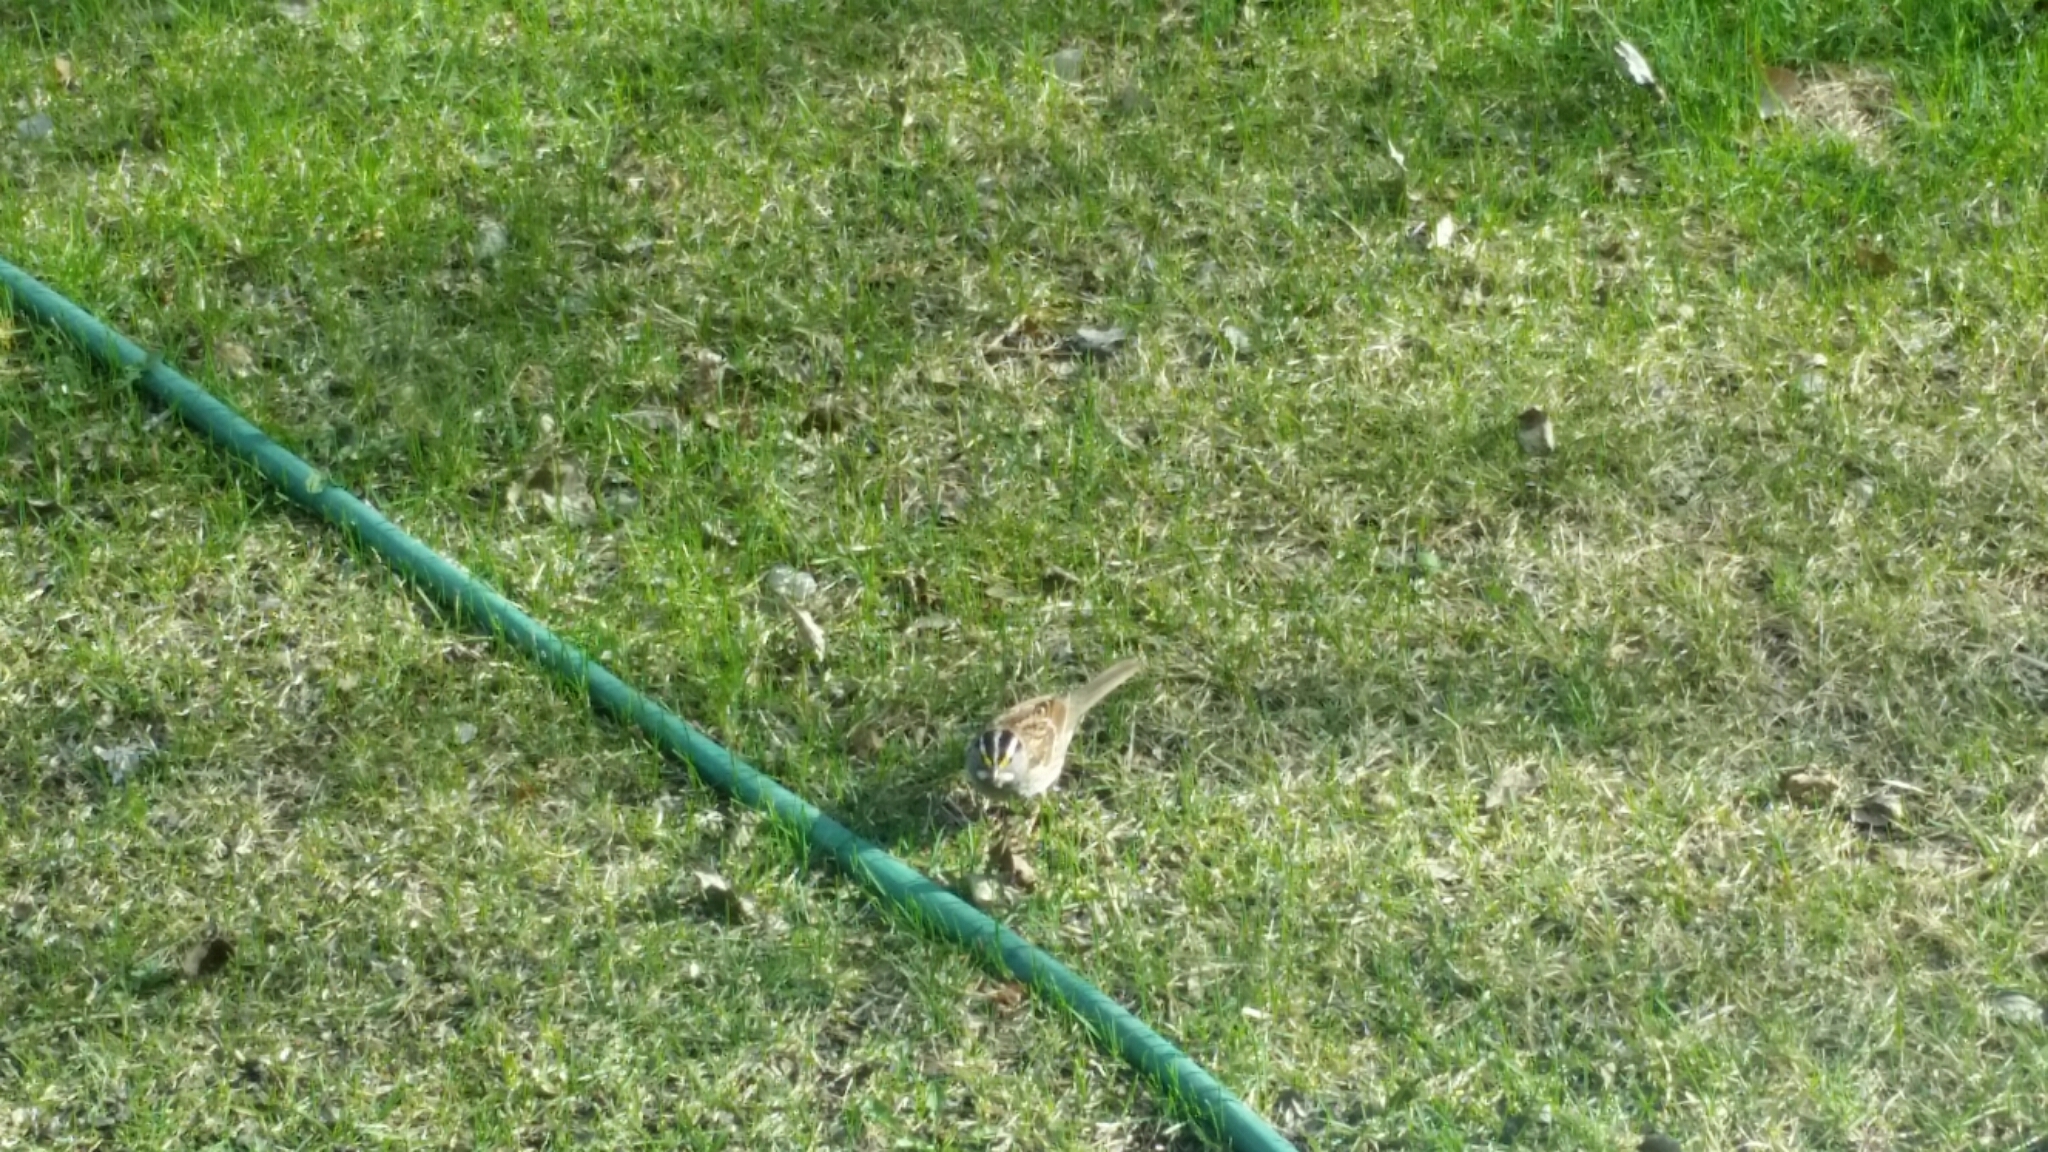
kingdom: Animalia
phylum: Chordata
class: Aves
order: Passeriformes
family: Passerellidae
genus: Zonotrichia
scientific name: Zonotrichia albicollis
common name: White-throated sparrow
